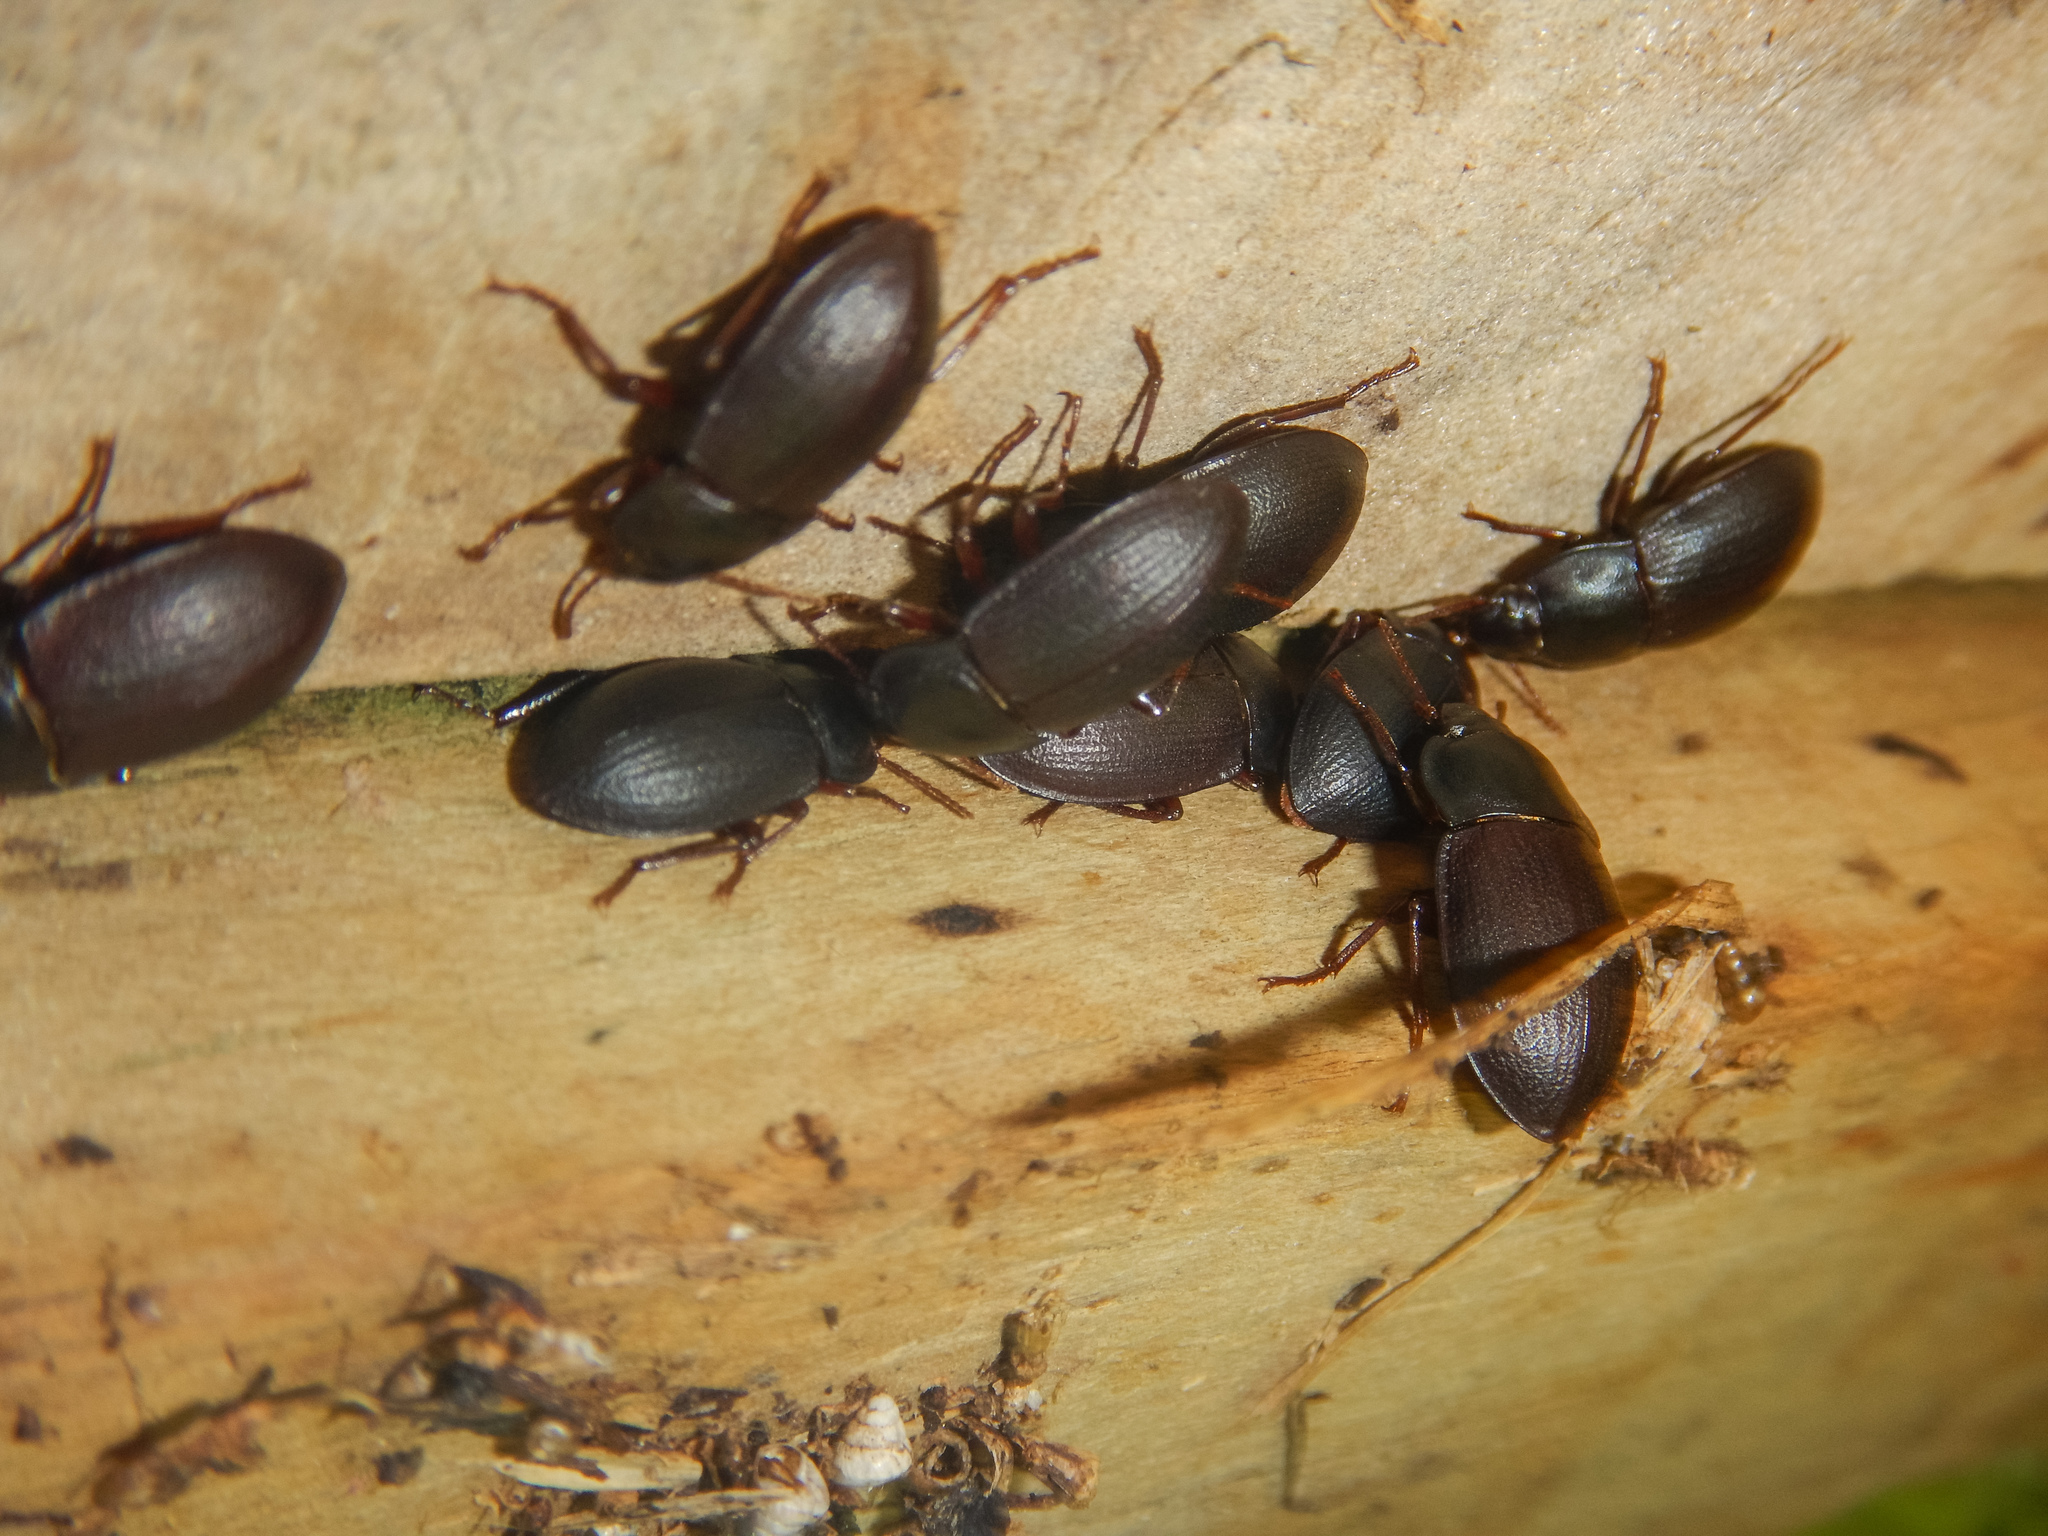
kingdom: Animalia
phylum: Arthropoda
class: Insecta
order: Coleoptera
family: Tenebrionidae
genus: Mimopeus
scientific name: Mimopeus
